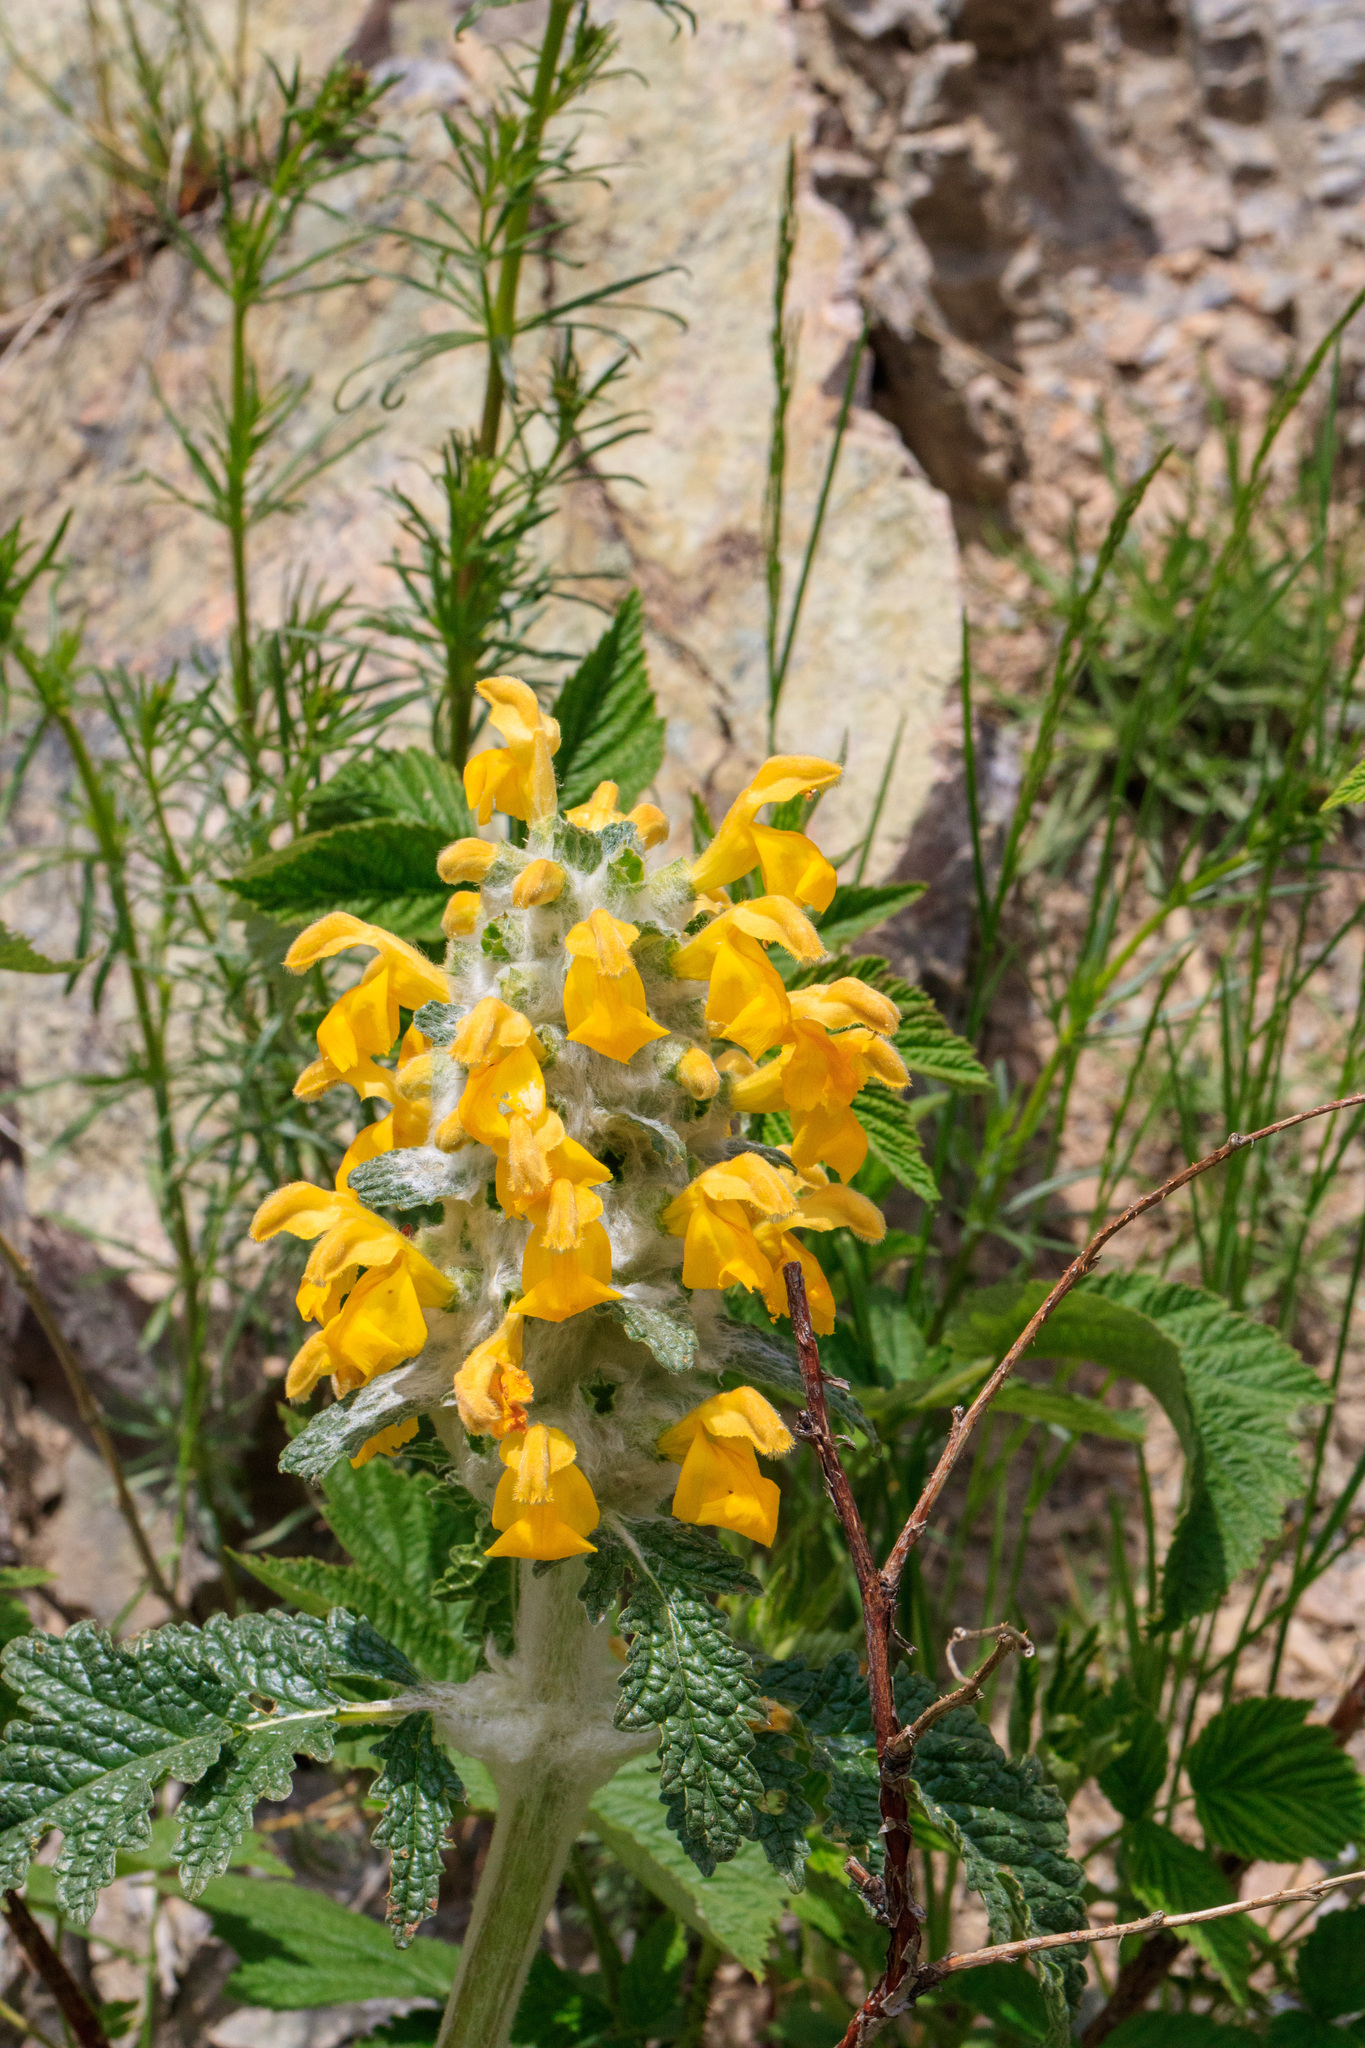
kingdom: Plantae
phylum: Tracheophyta
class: Magnoliopsida
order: Lamiales
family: Lamiaceae
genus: Phlomoides
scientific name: Phlomoides speciosa
